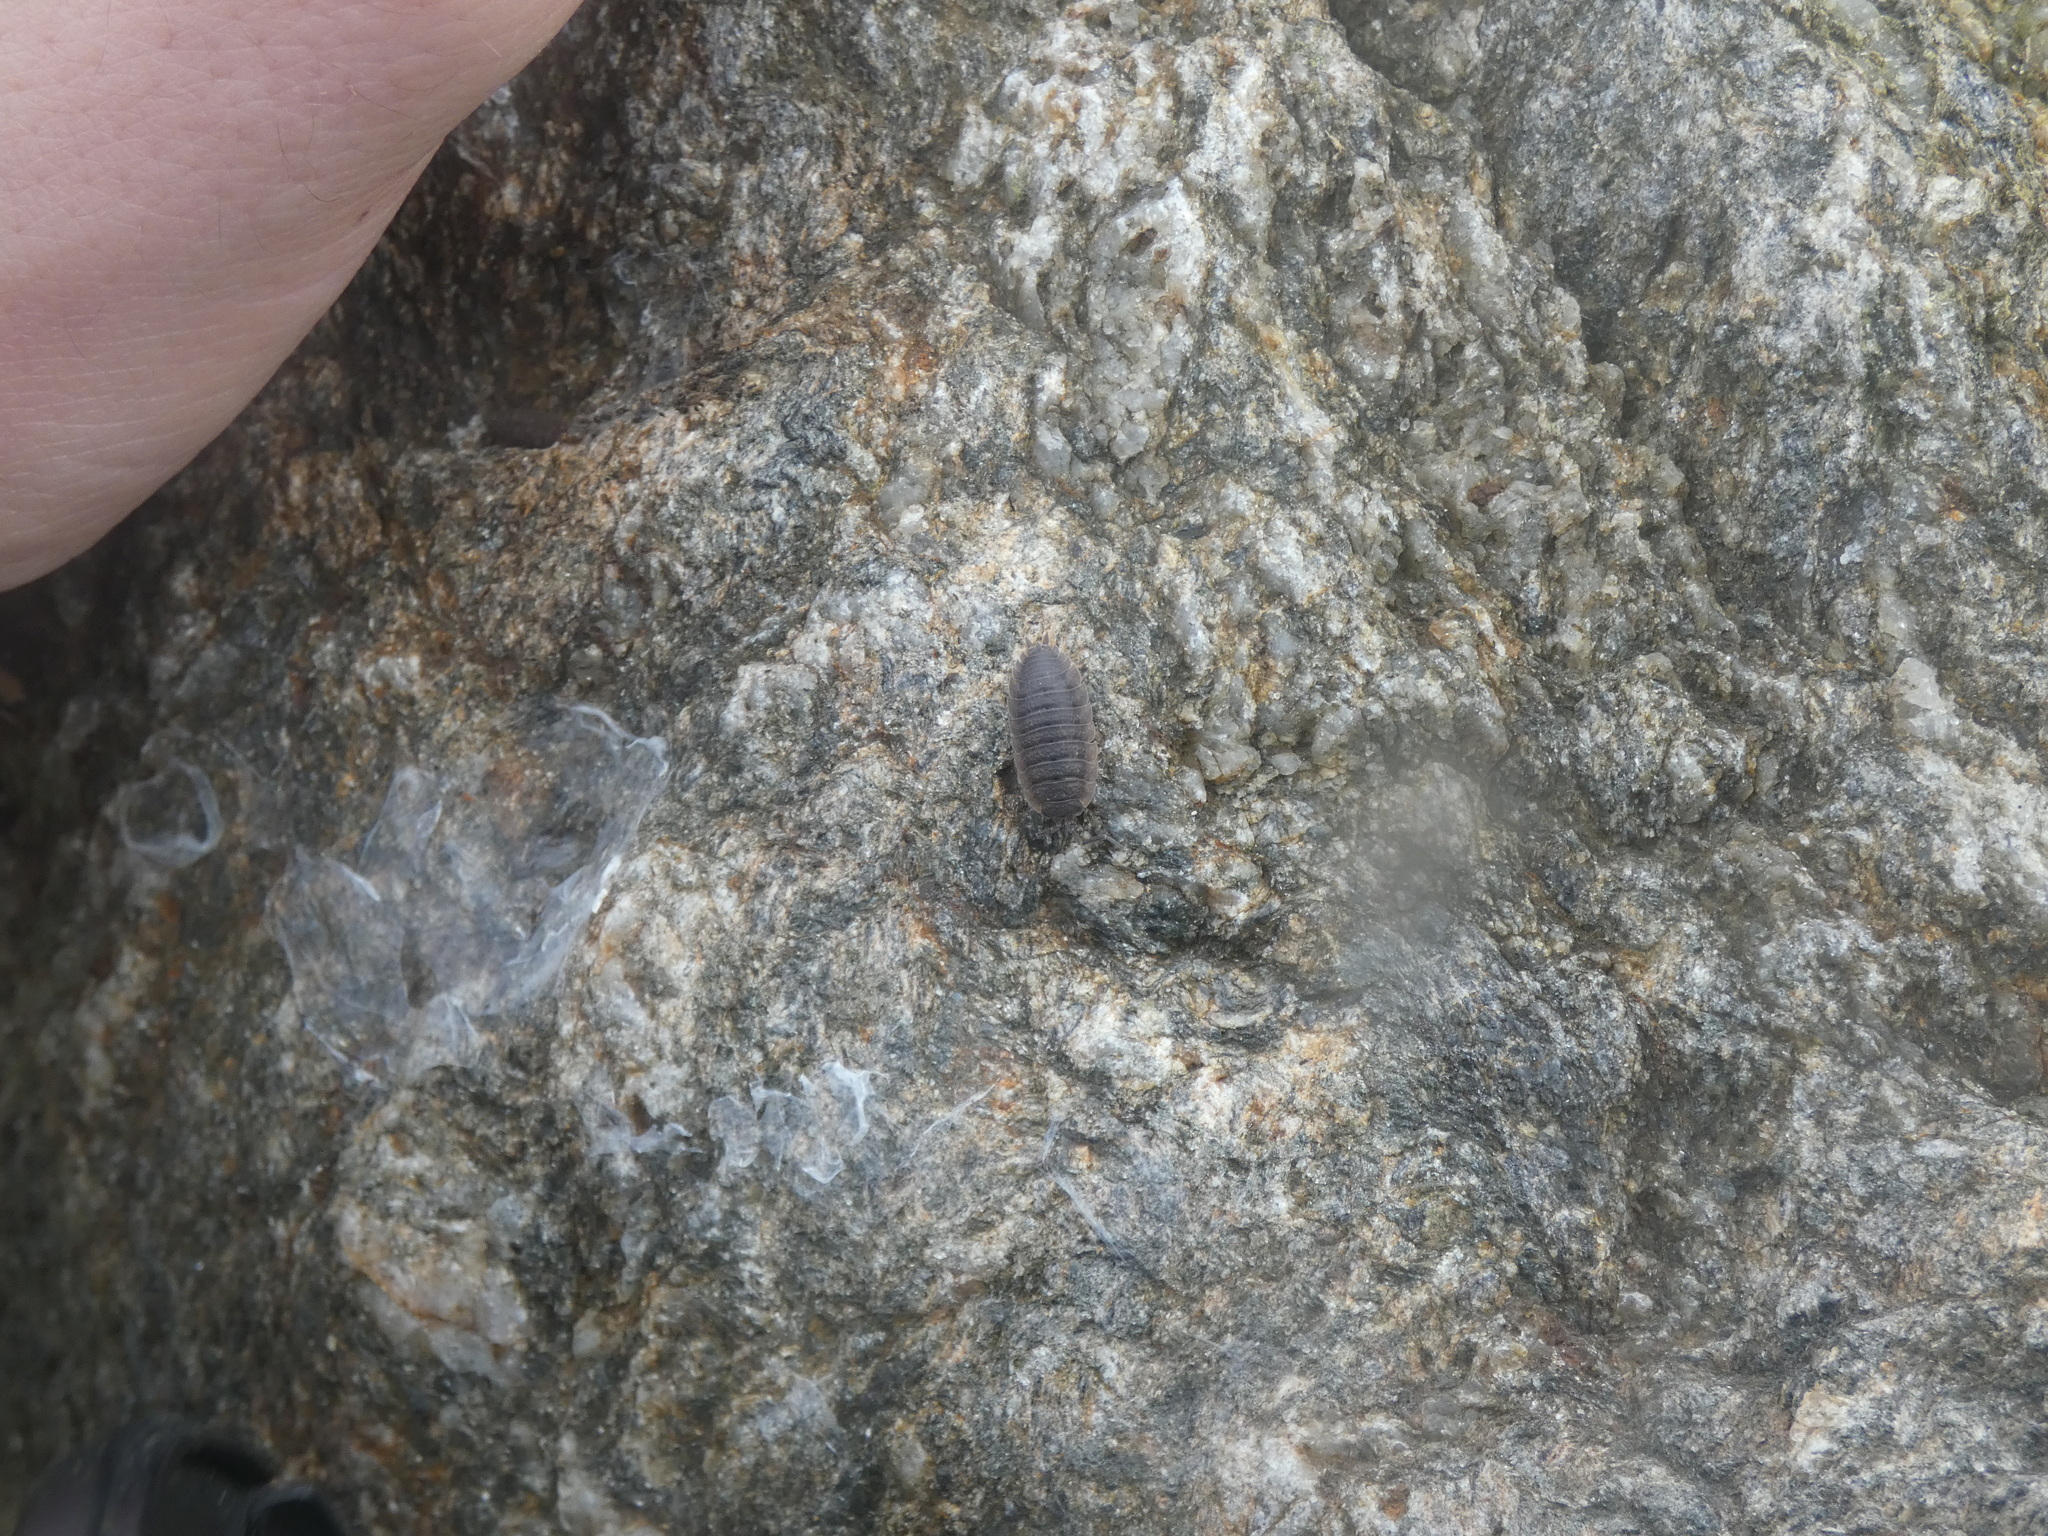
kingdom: Animalia
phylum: Arthropoda
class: Malacostraca
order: Isopoda
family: Porcellionidae
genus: Porcellio
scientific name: Porcellio scaber
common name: Common rough woodlouse
